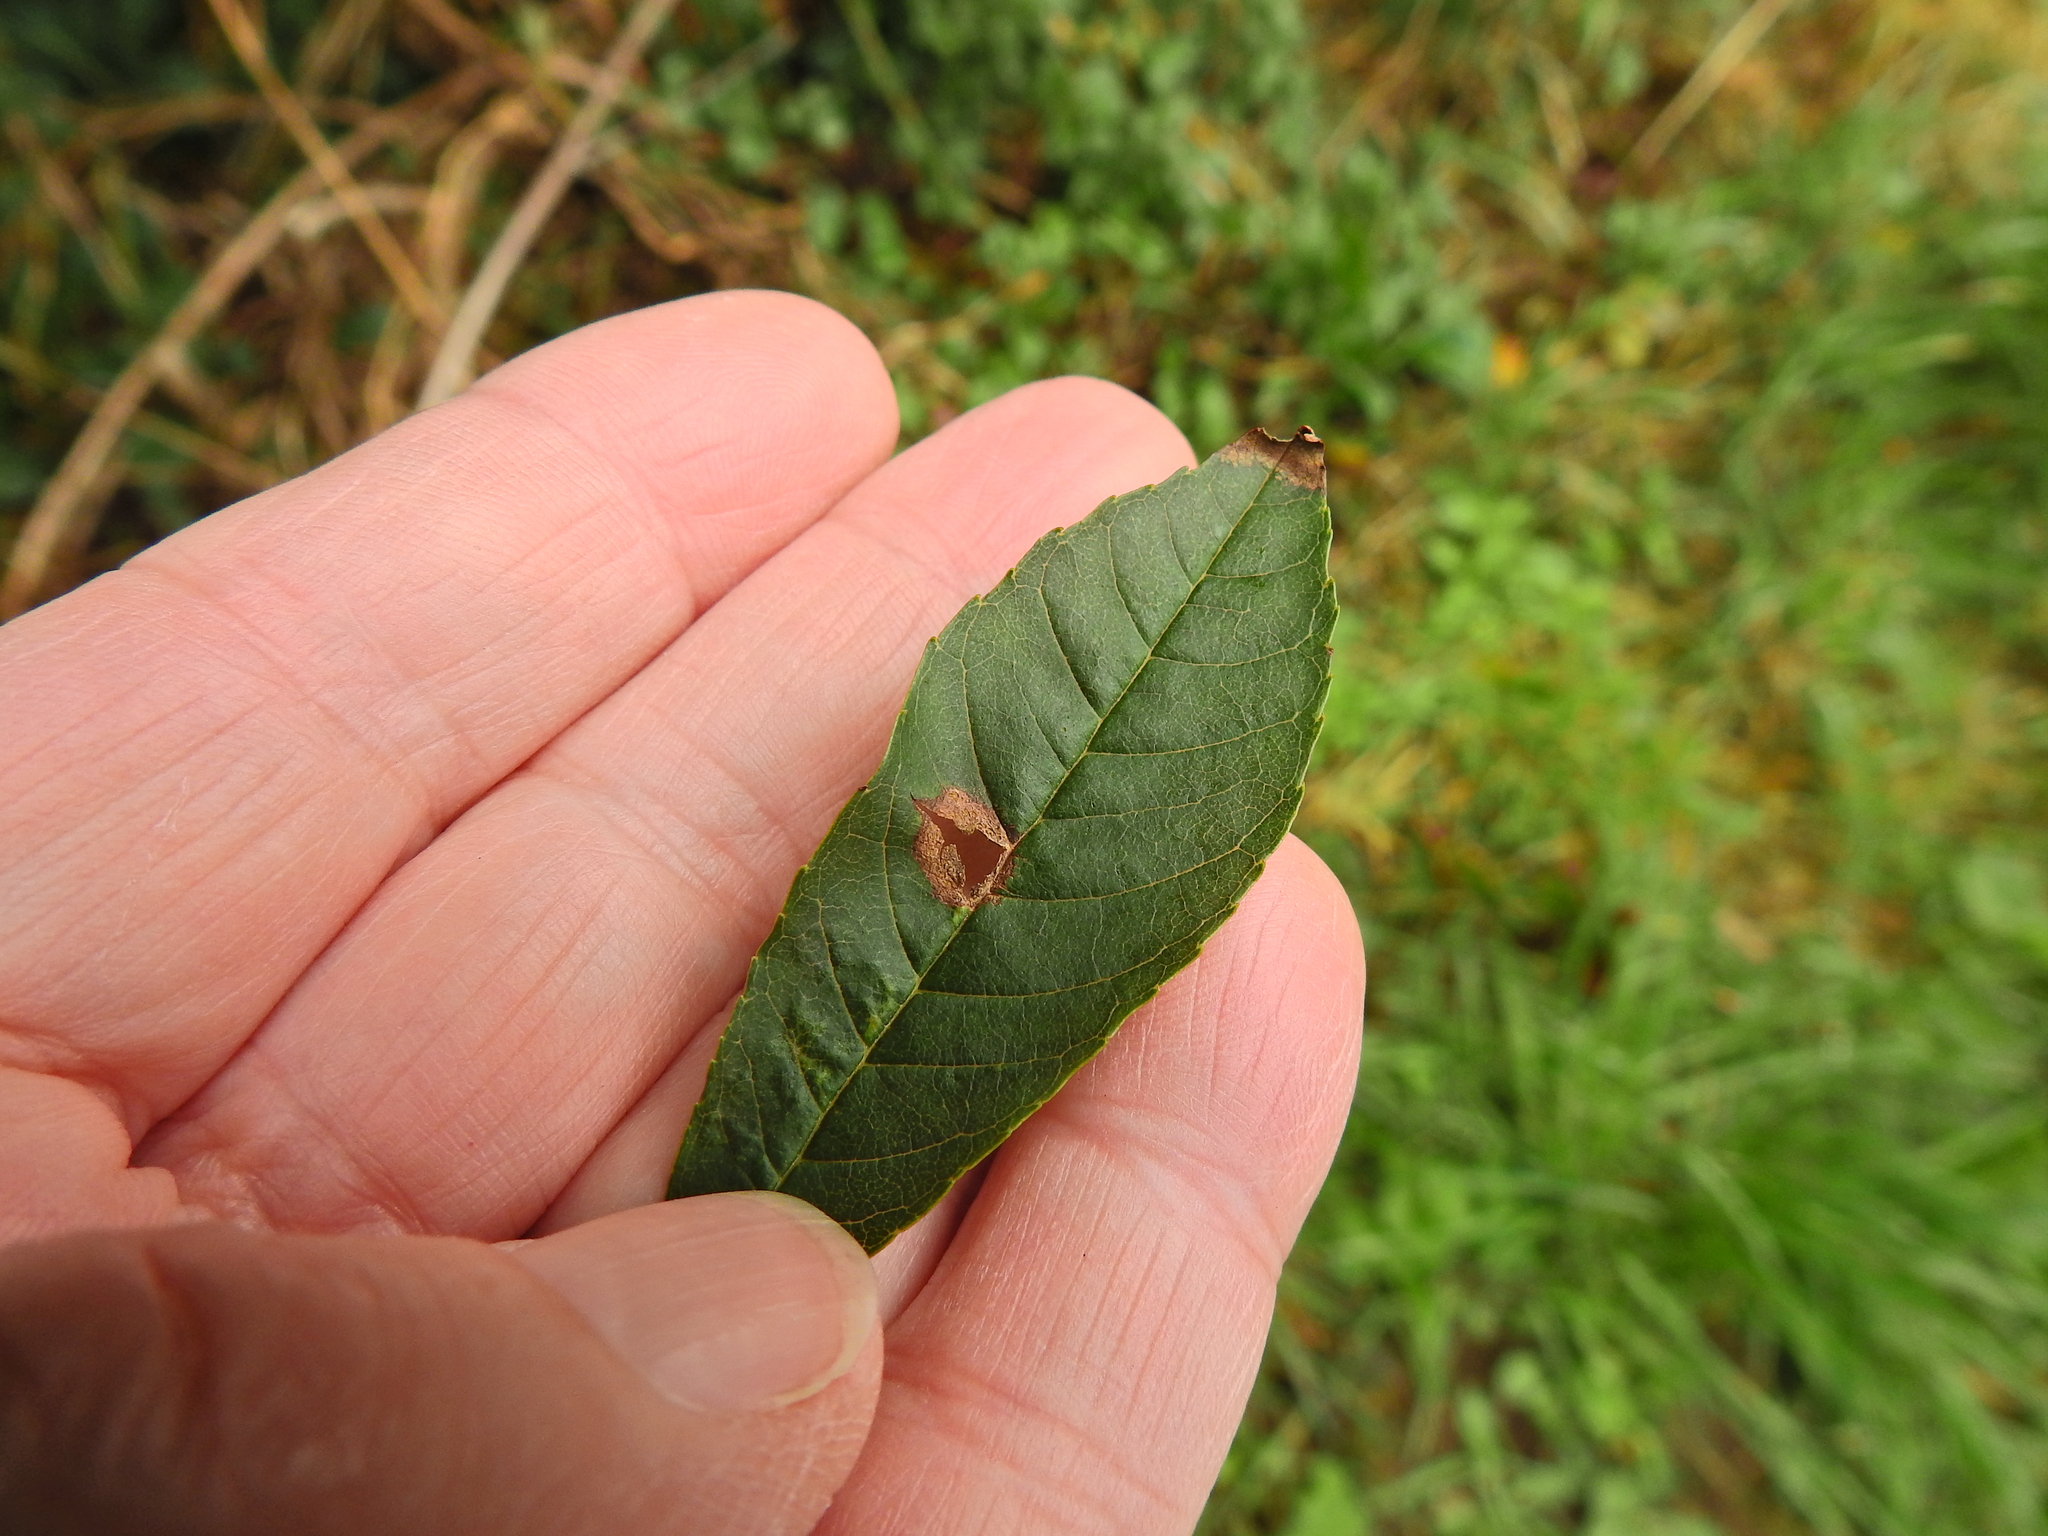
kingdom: Animalia
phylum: Arthropoda
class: Insecta
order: Diptera
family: Cecidomyiidae
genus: Dasineura
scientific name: Dasineura fraxinea
